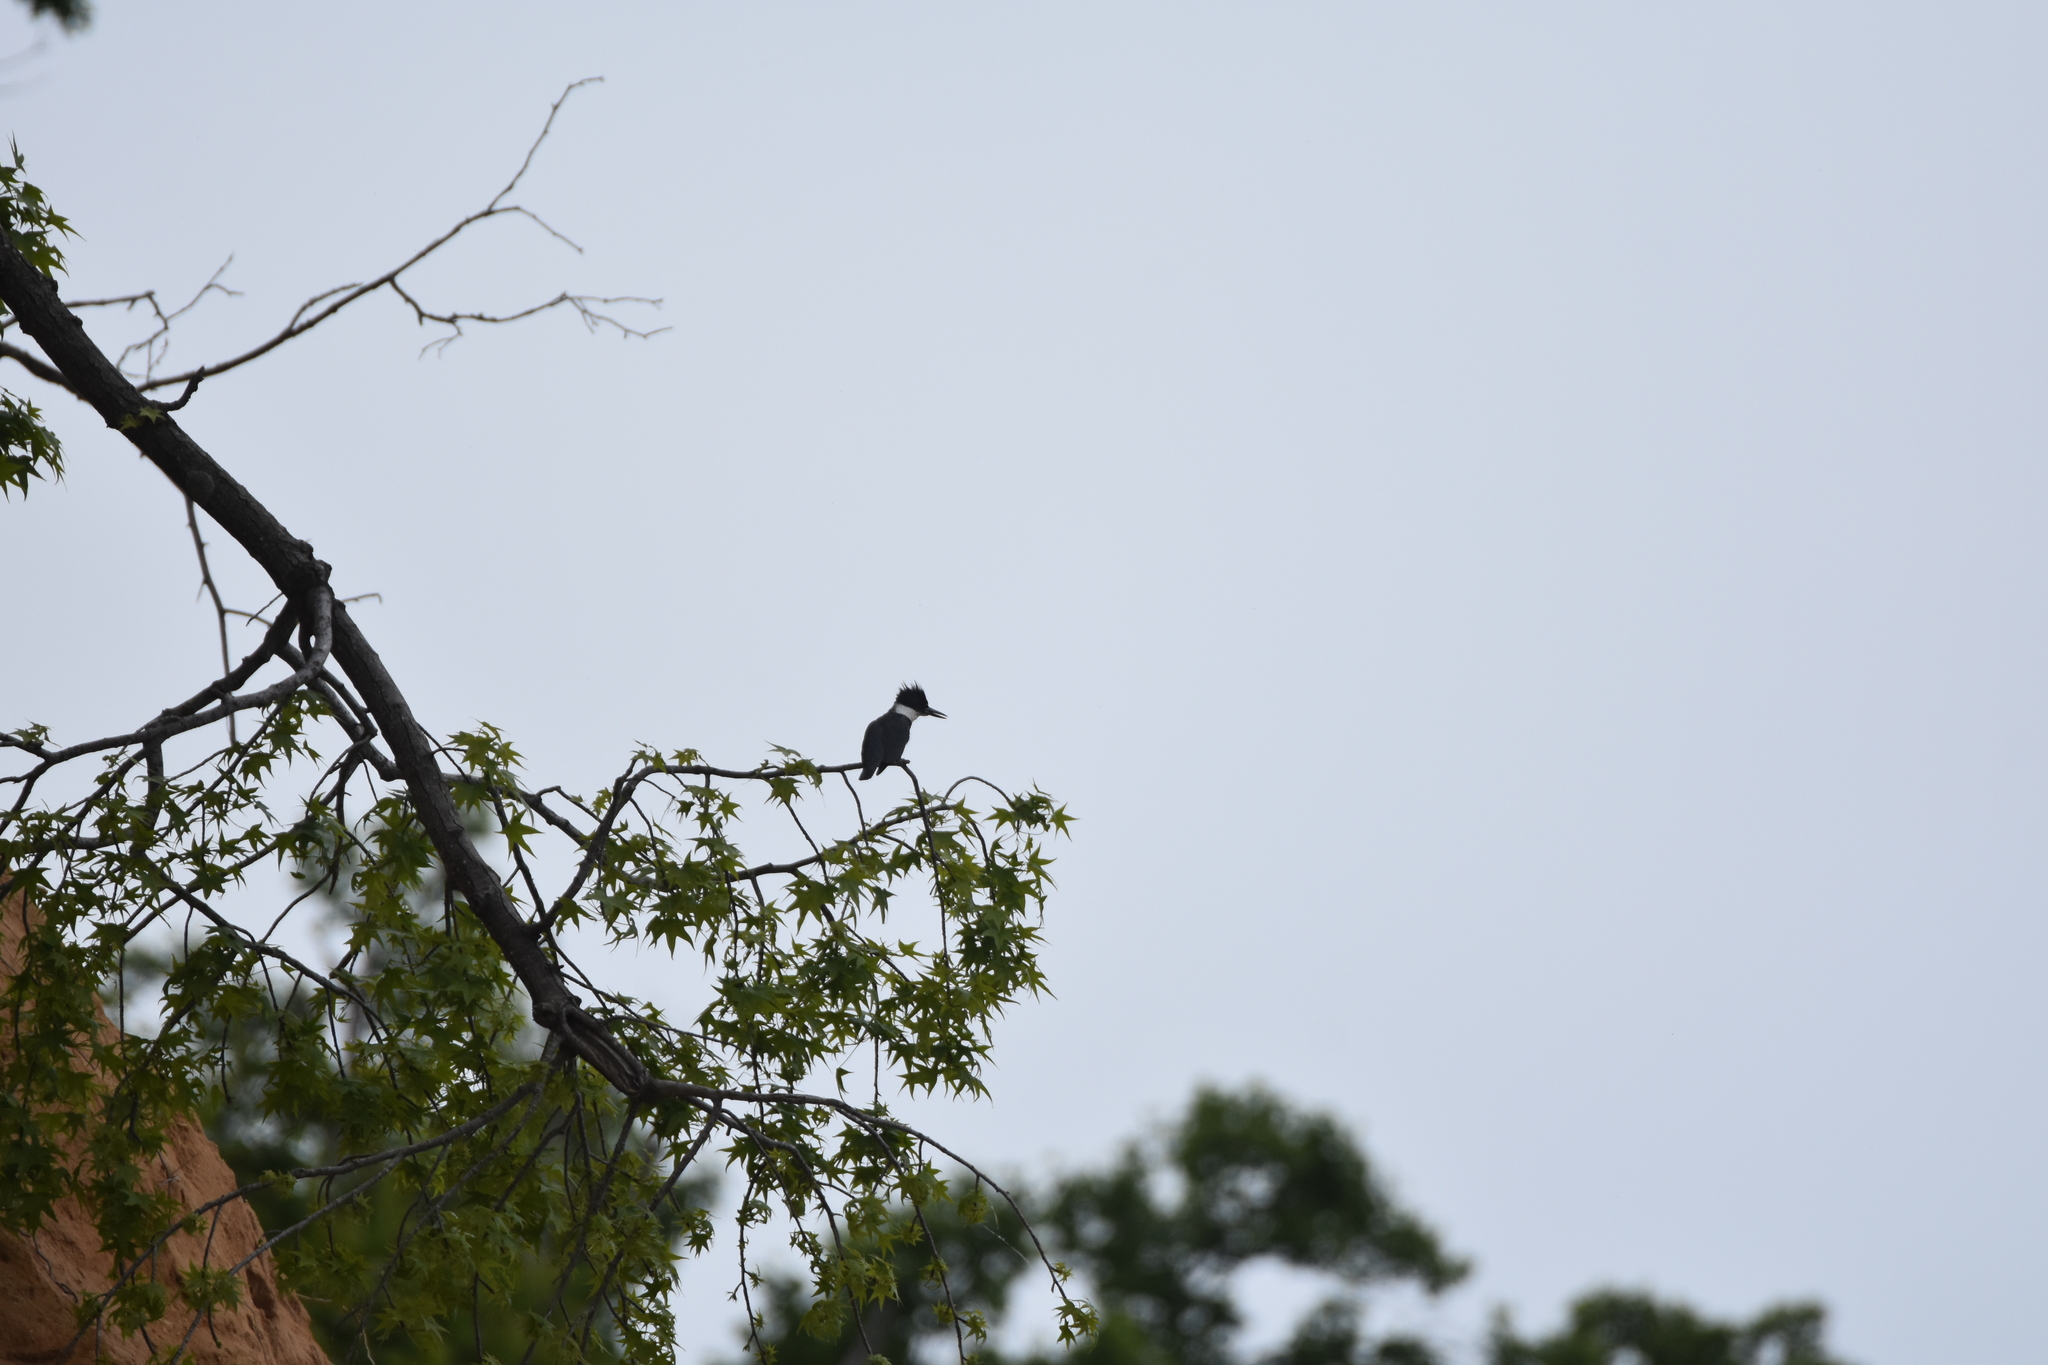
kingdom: Animalia
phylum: Chordata
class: Aves
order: Coraciiformes
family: Alcedinidae
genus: Megaceryle
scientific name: Megaceryle alcyon
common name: Belted kingfisher
